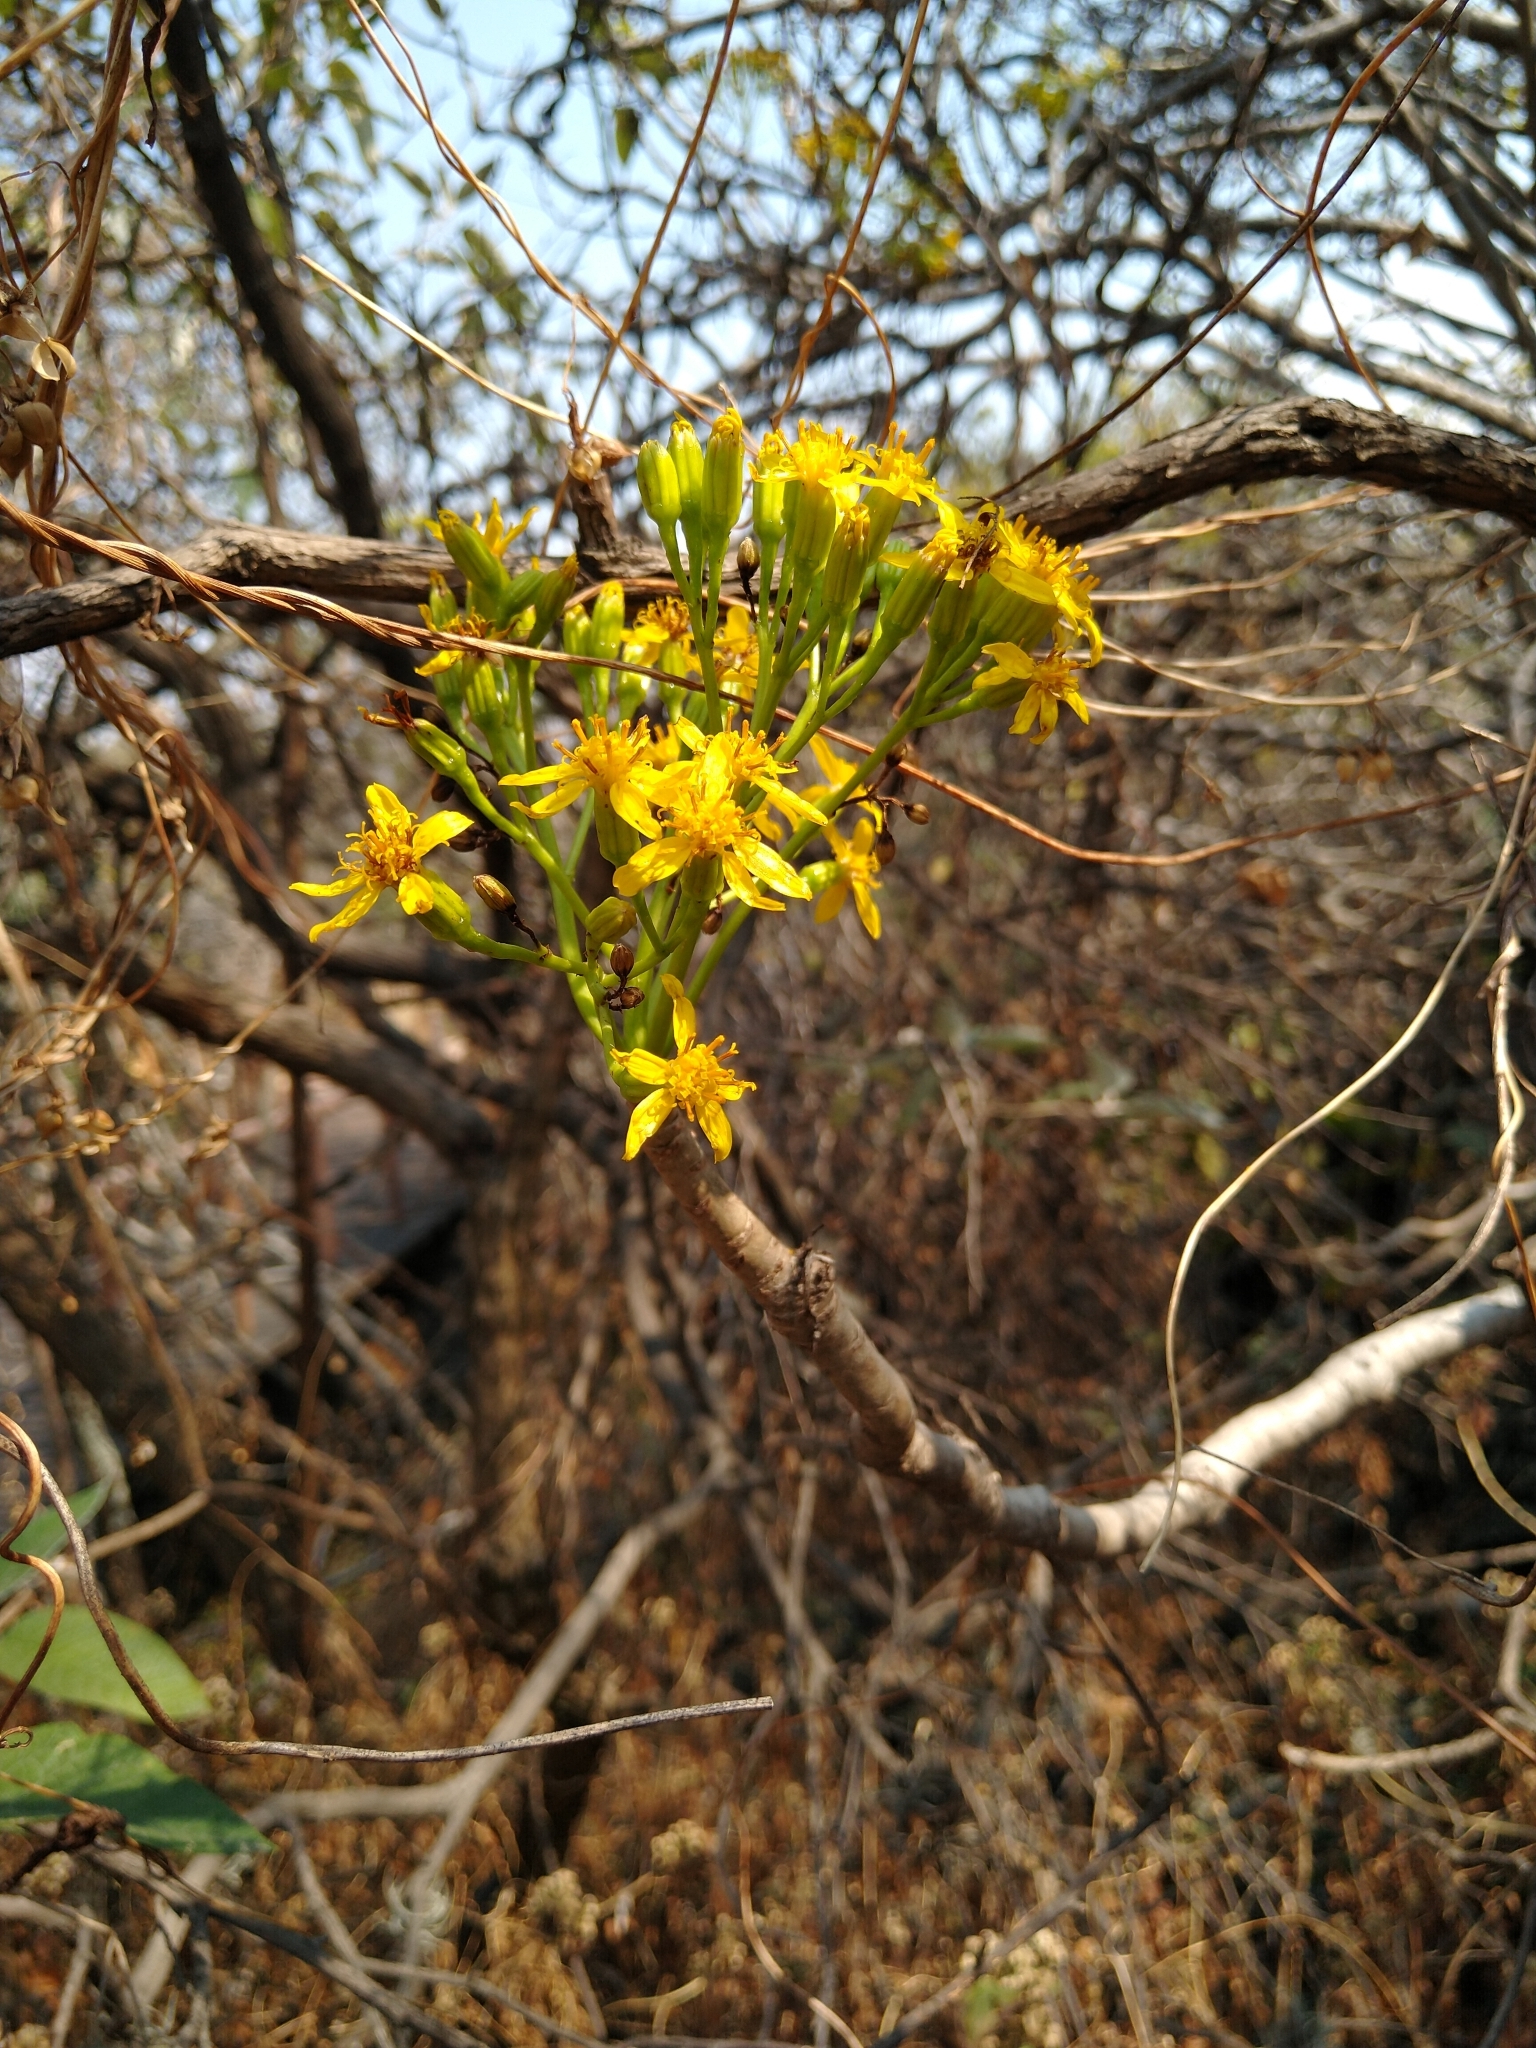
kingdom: Plantae
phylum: Tracheophyta
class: Magnoliopsida
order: Asterales
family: Asteraceae
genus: Pittocaulon
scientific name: Pittocaulon praecox
